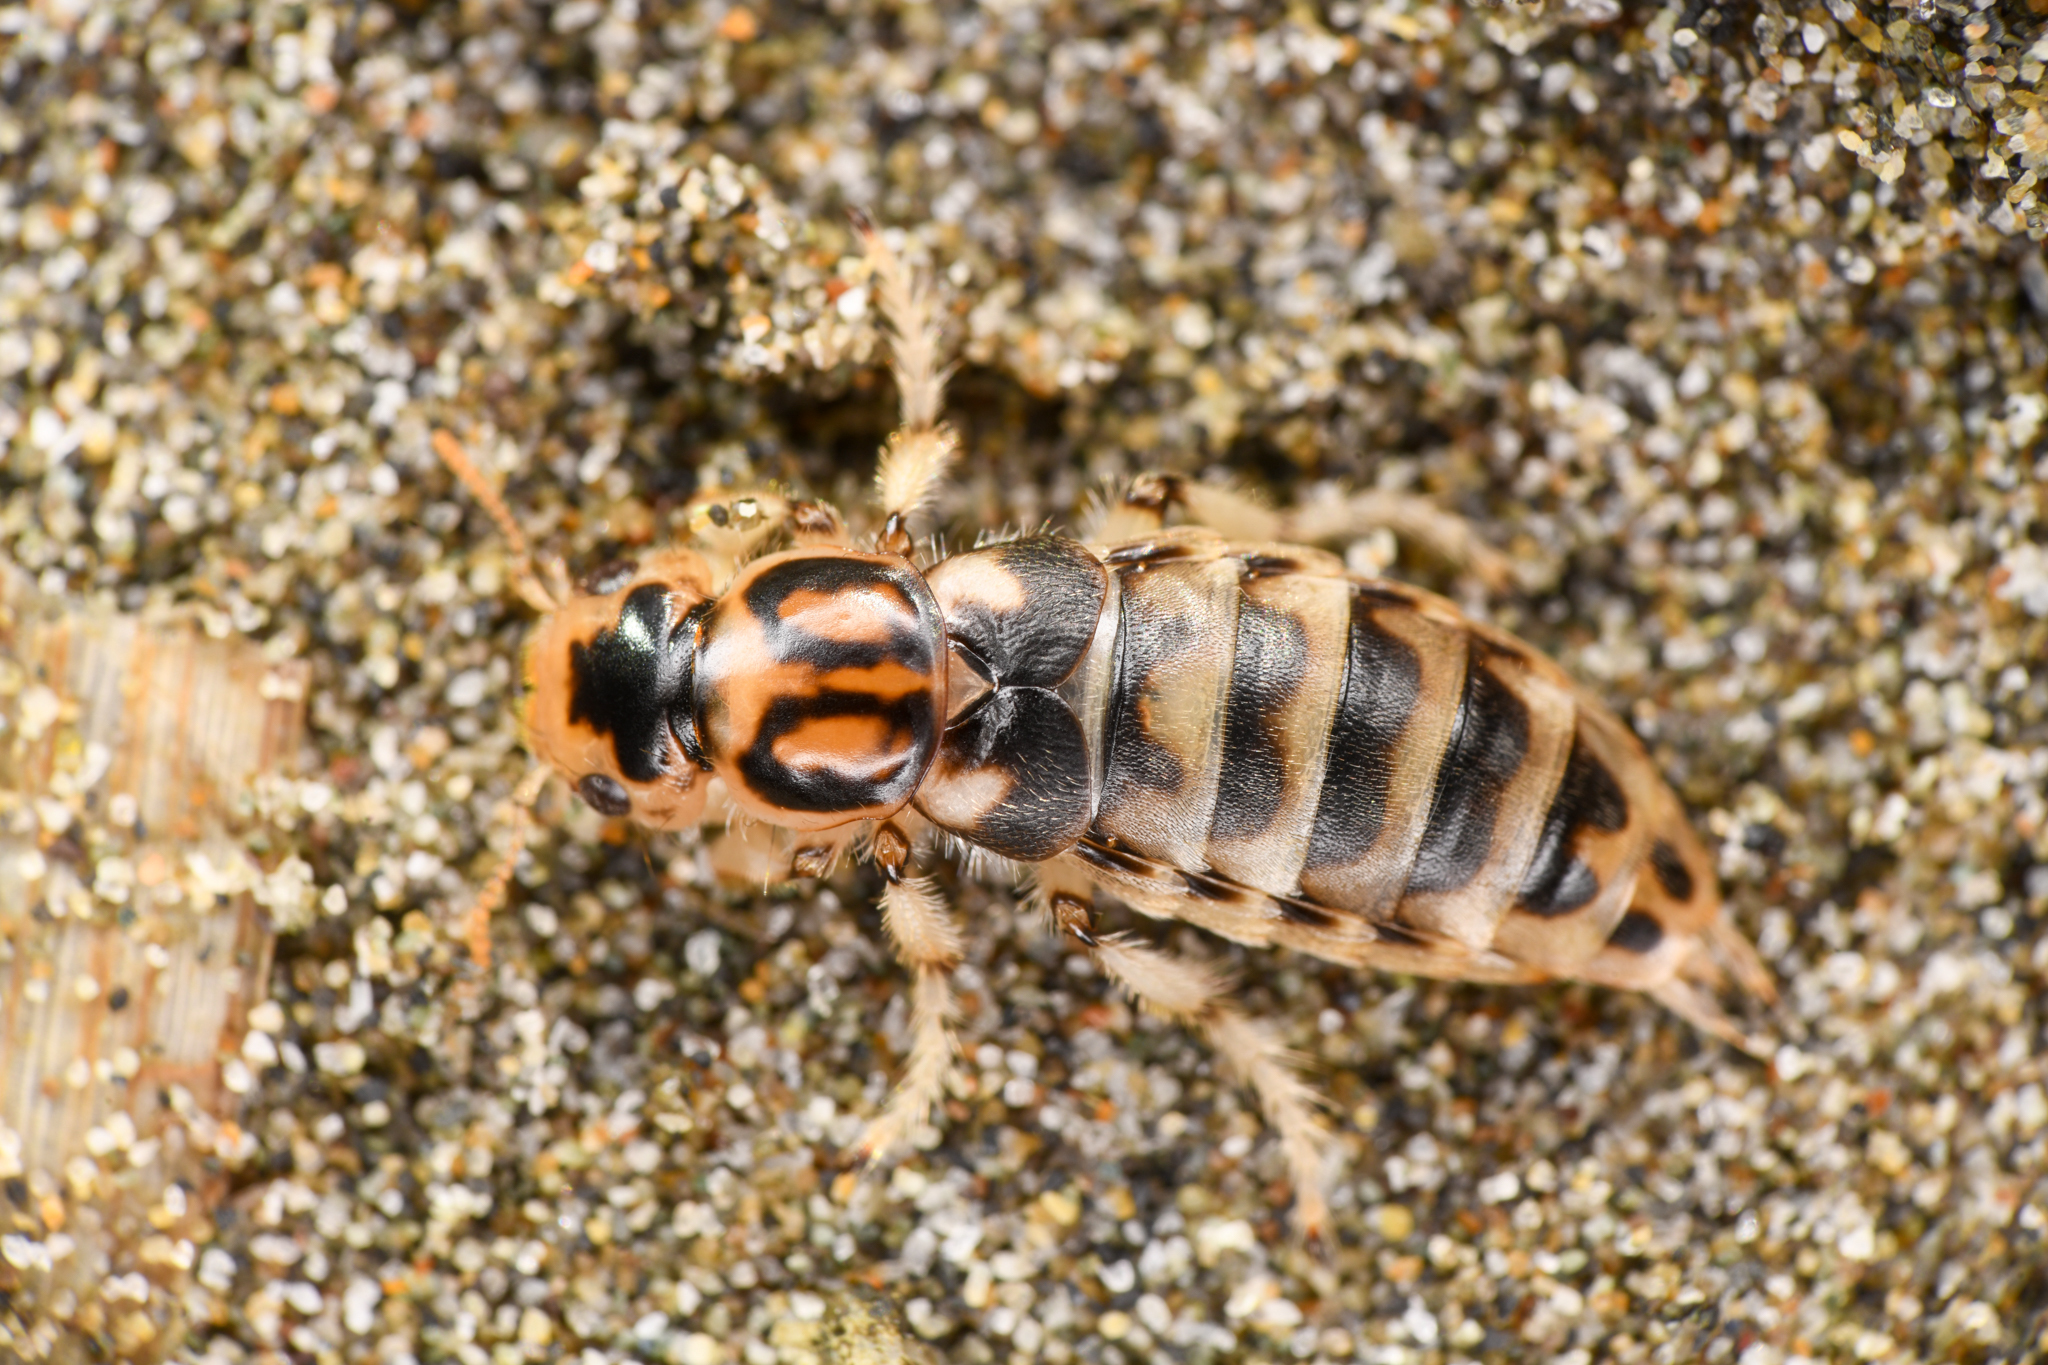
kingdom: Animalia
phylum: Arthropoda
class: Insecta
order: Coleoptera
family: Staphylinidae
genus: Thinopinus
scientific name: Thinopinus pictus
